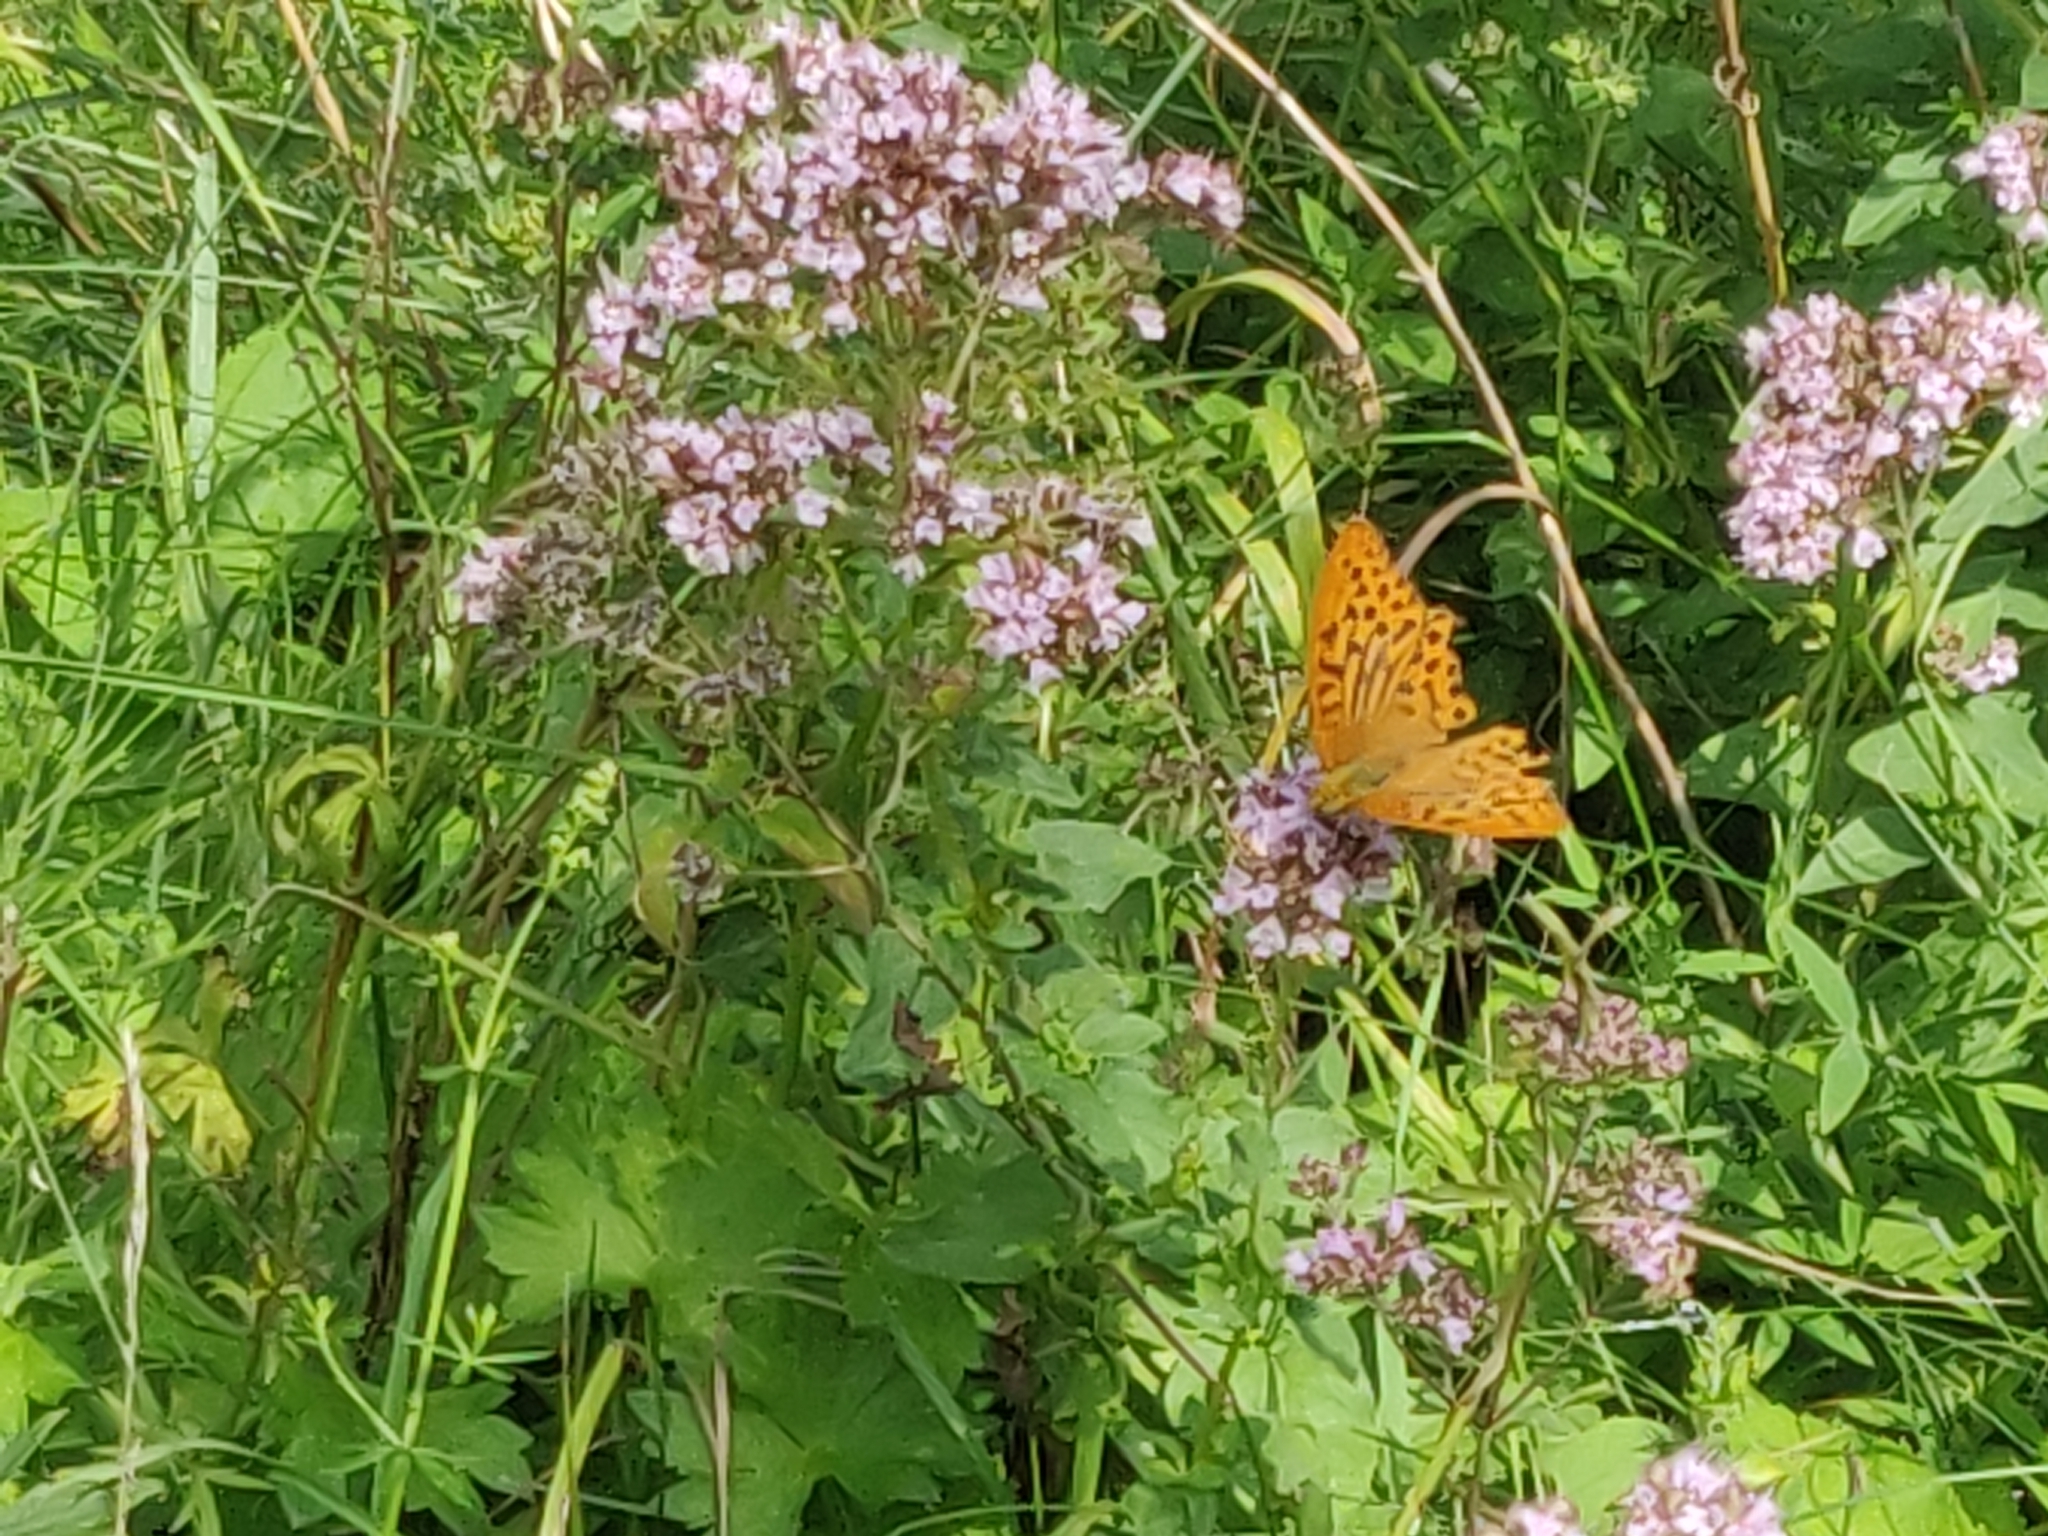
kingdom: Animalia
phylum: Arthropoda
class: Insecta
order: Lepidoptera
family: Nymphalidae
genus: Argynnis
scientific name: Argynnis paphia
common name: Silver-washed fritillary
